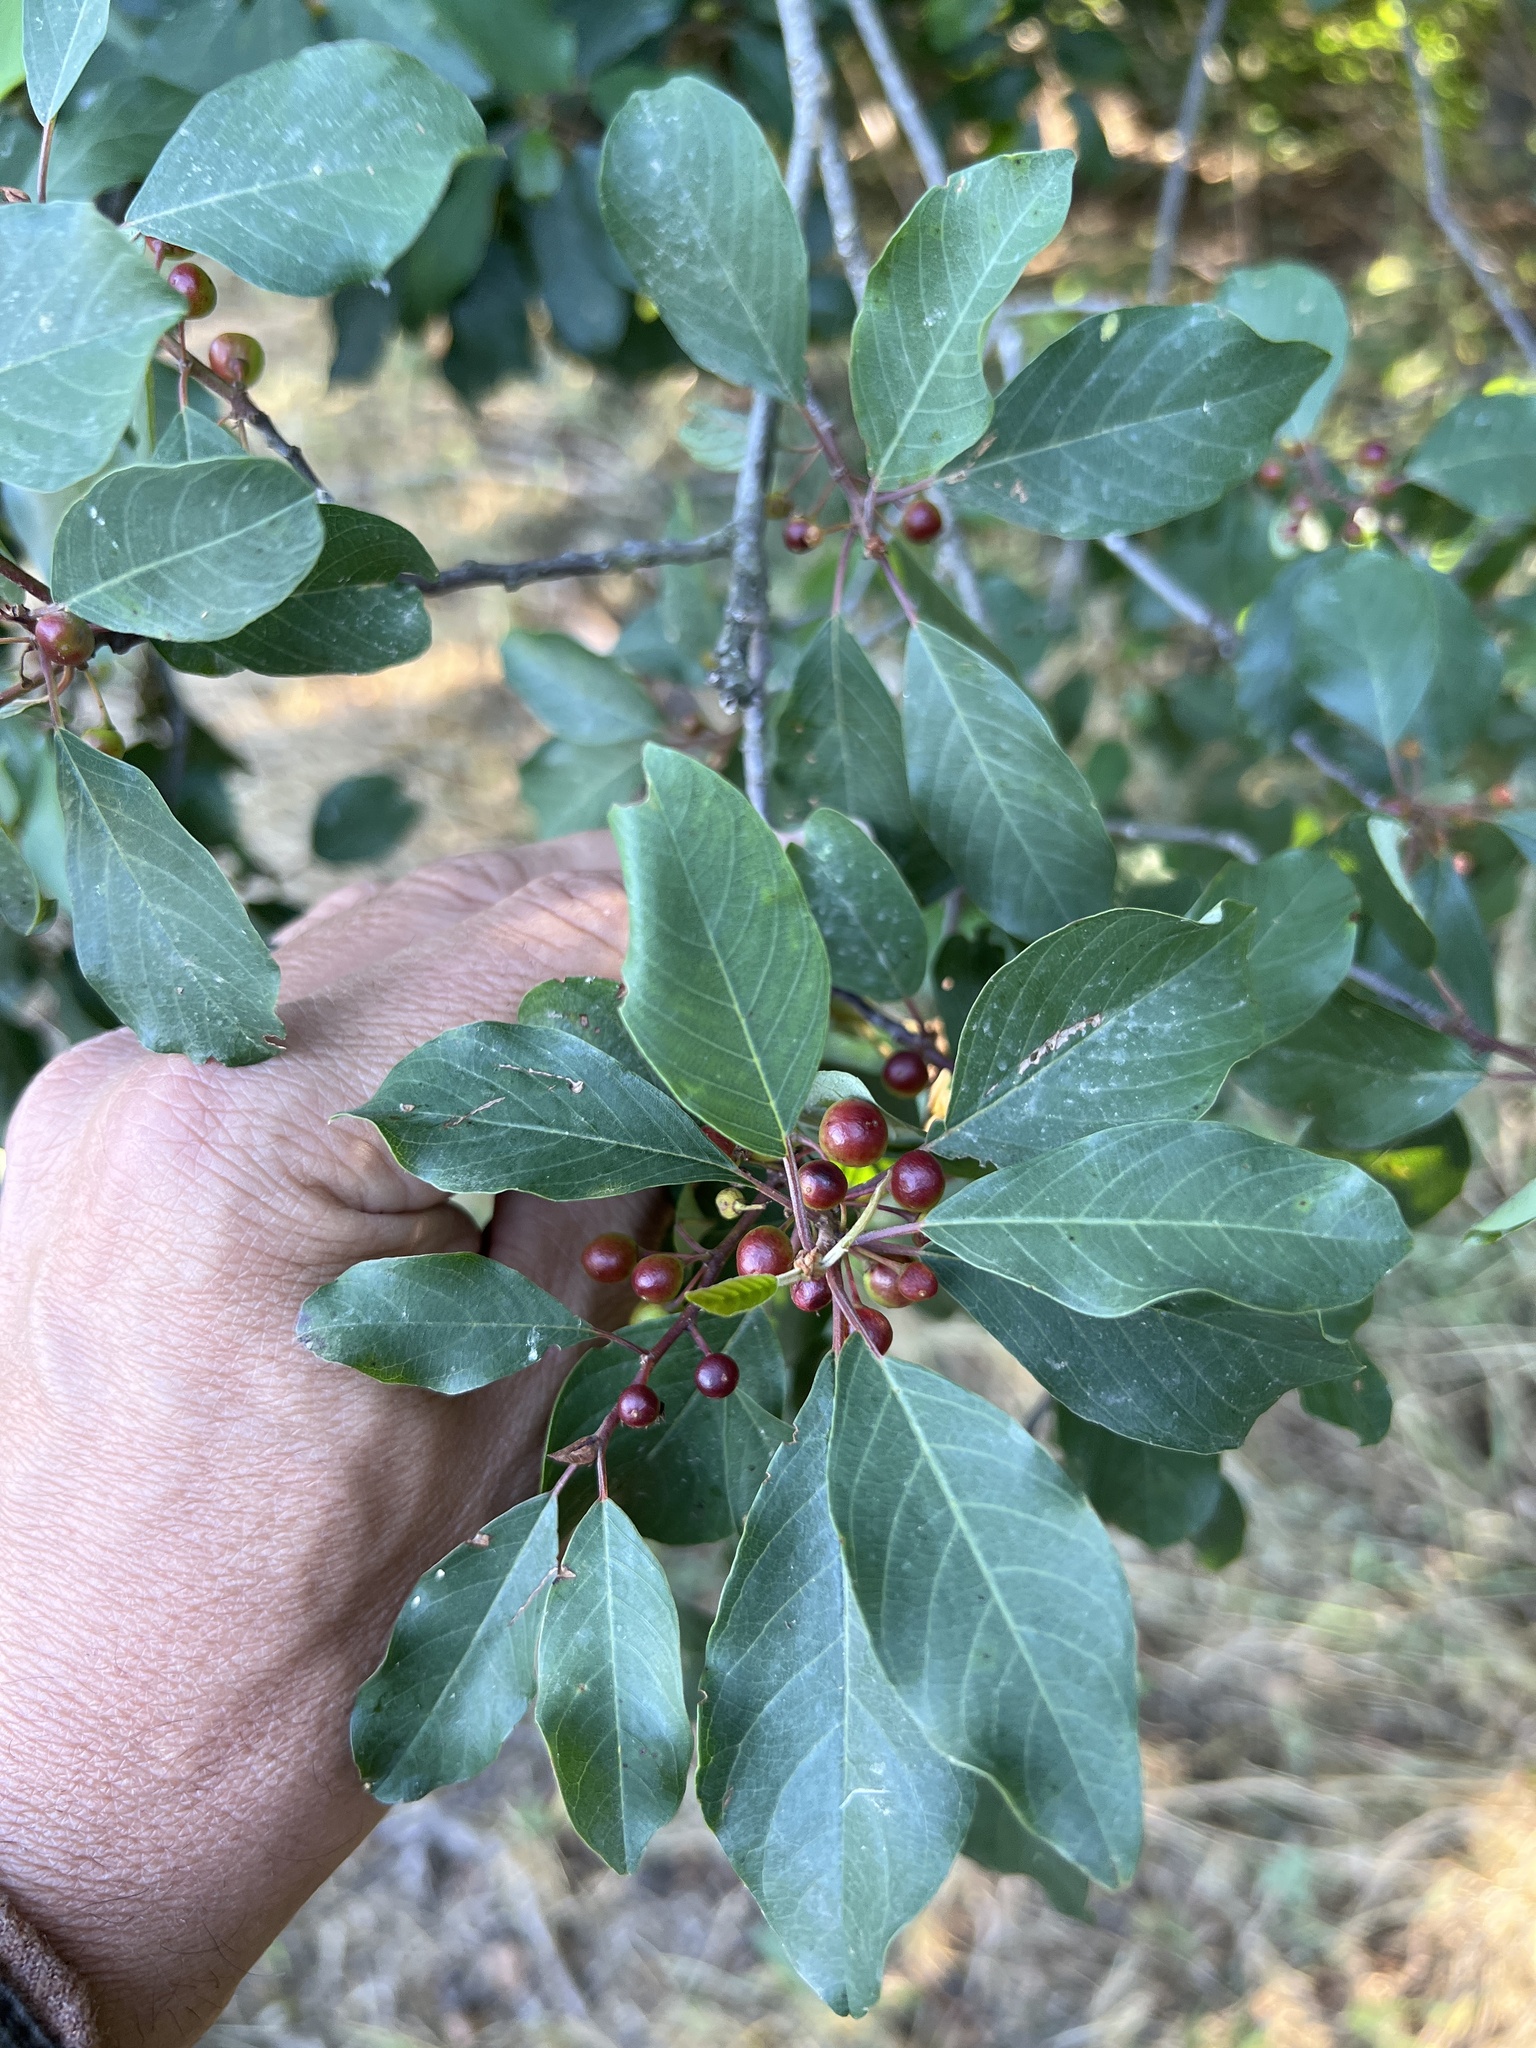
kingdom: Plantae
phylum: Tracheophyta
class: Magnoliopsida
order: Rosales
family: Rhamnaceae
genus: Frangula
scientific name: Frangula alnus
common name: Alder buckthorn
